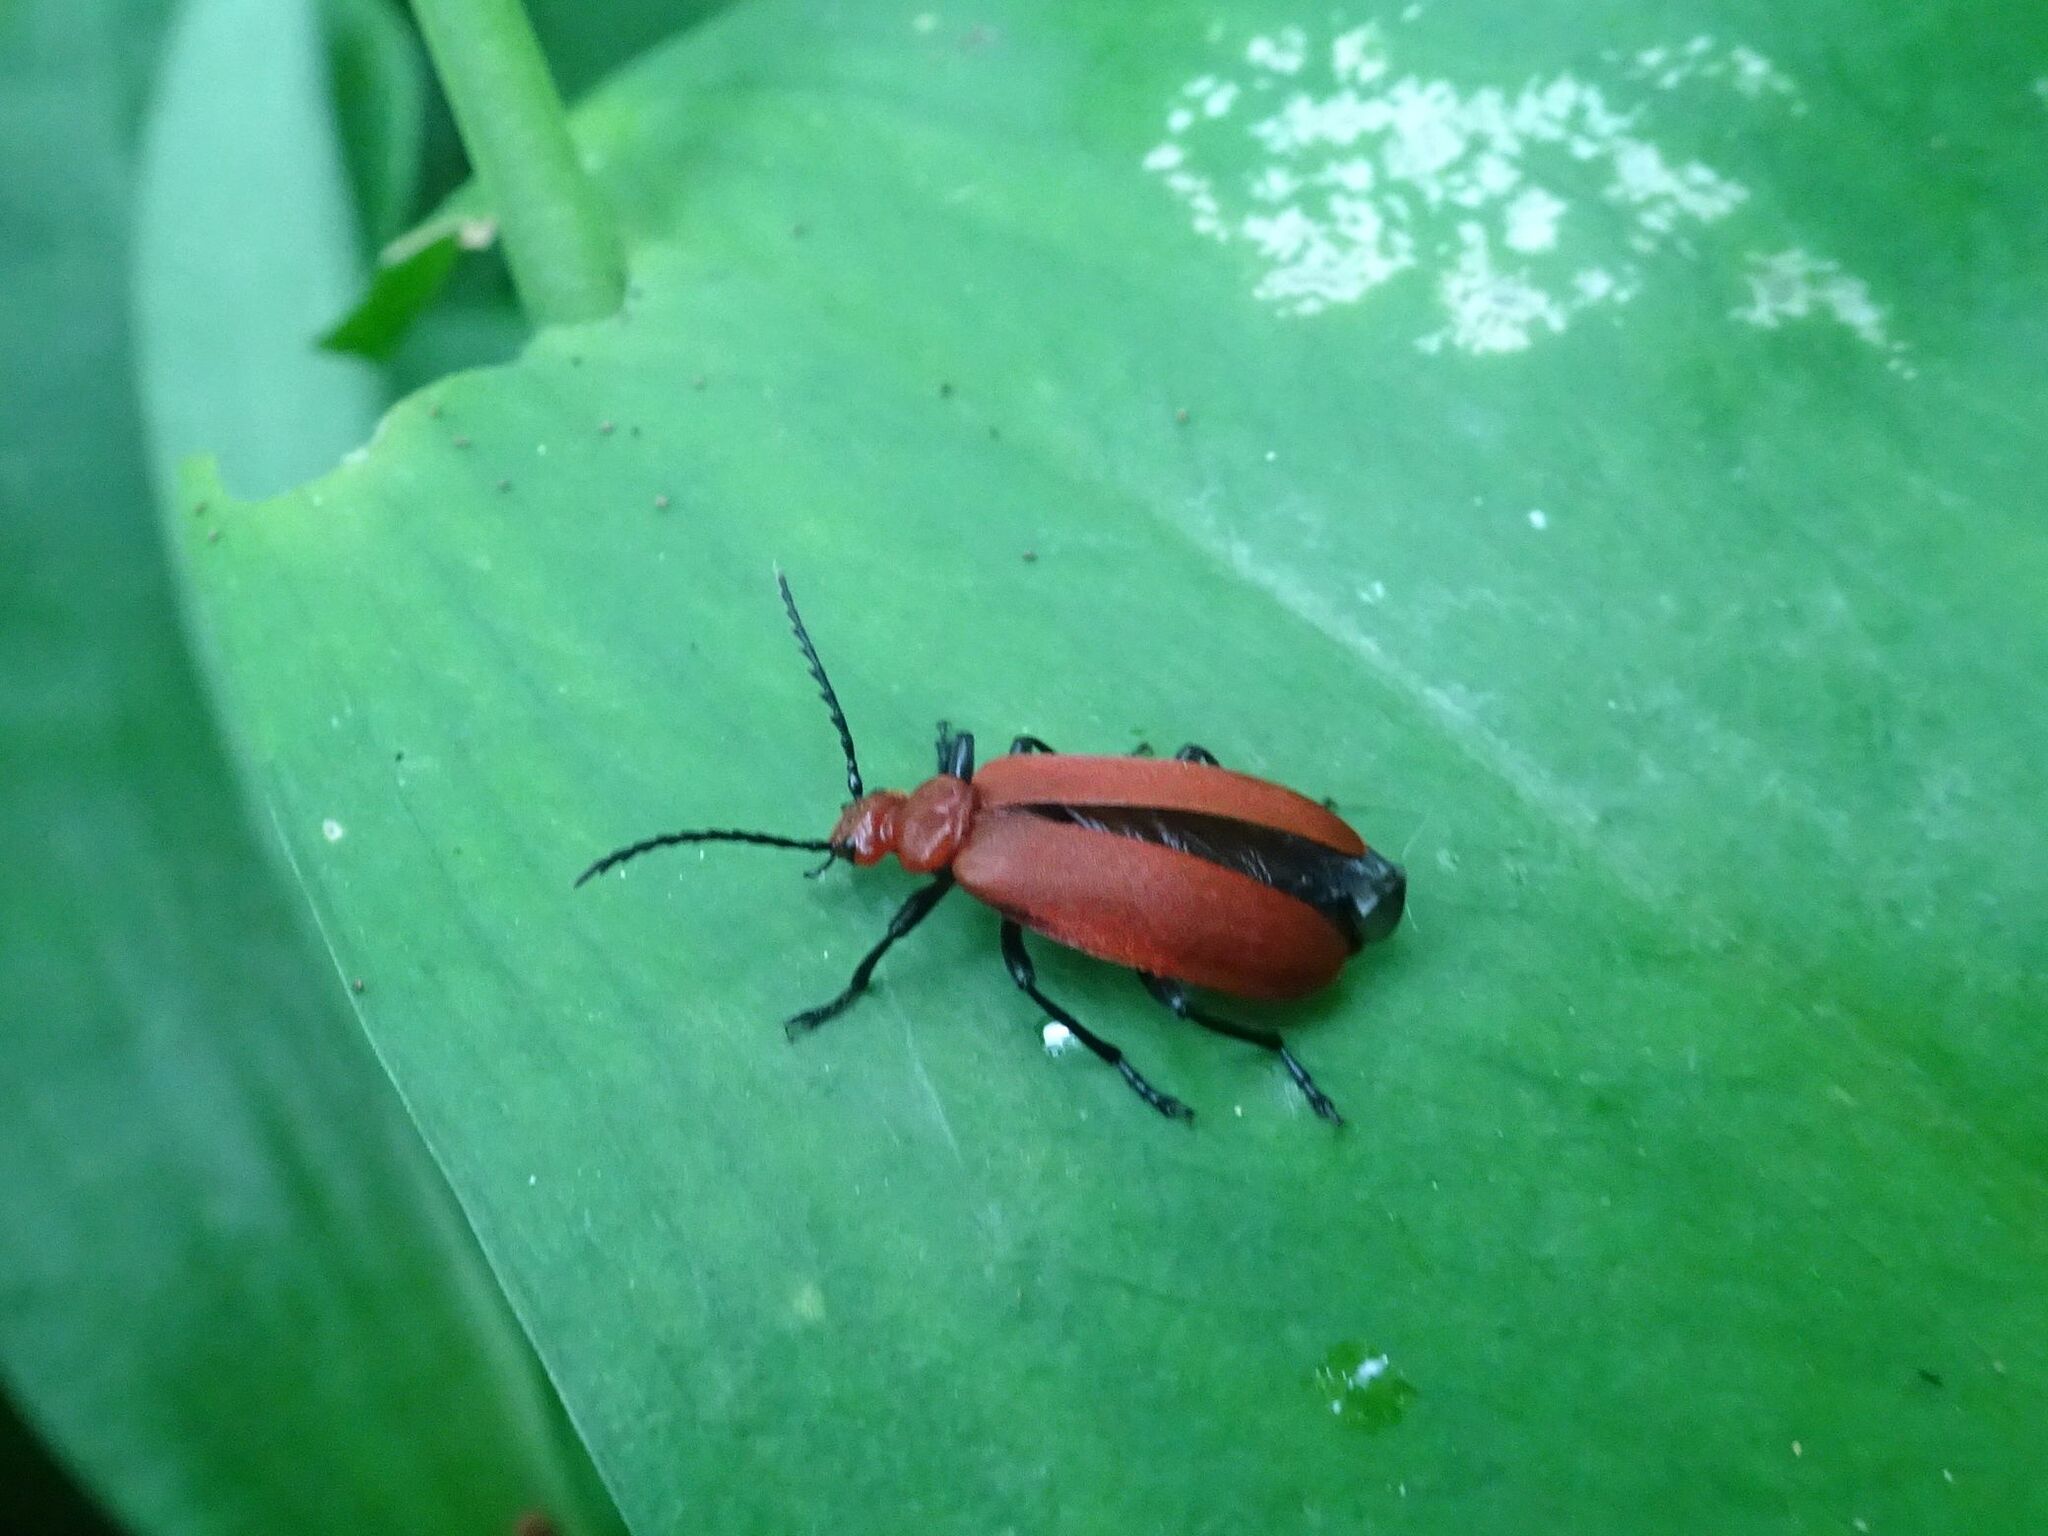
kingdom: Animalia
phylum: Arthropoda
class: Insecta
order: Coleoptera
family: Pyrochroidae
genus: Pyrochroa
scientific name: Pyrochroa serraticornis
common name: Red-headed cardinal beetle
